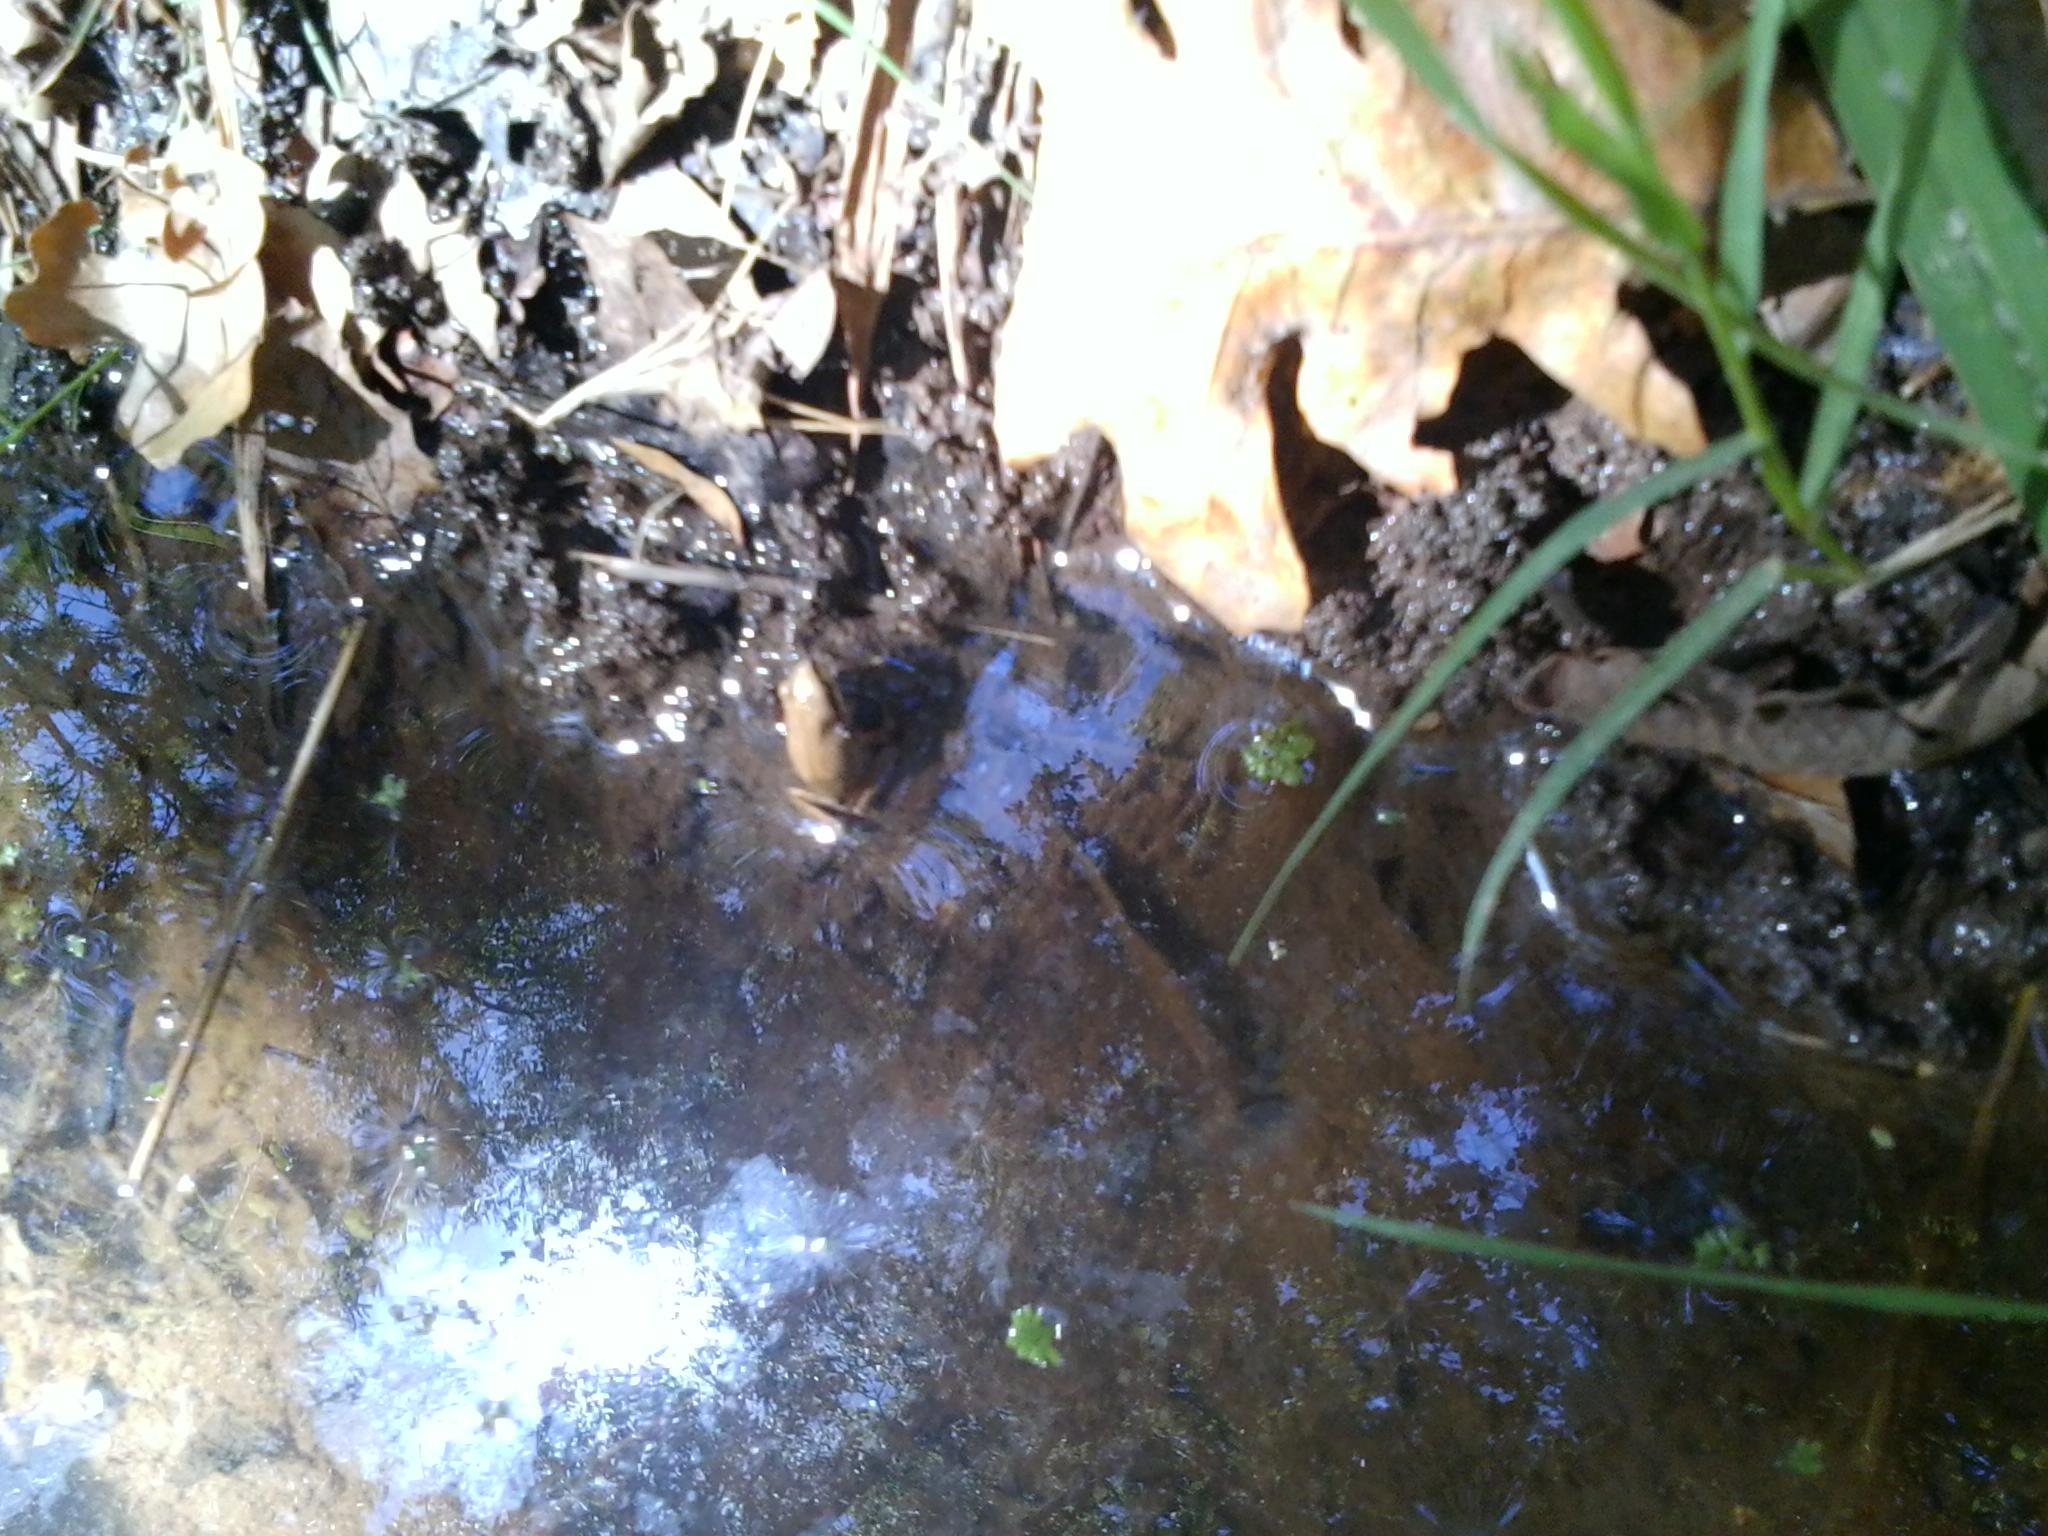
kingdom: Animalia
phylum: Chordata
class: Amphibia
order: Anura
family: Hylidae
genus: Pseudacris
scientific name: Pseudacris regilla
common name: Pacific chorus frog
